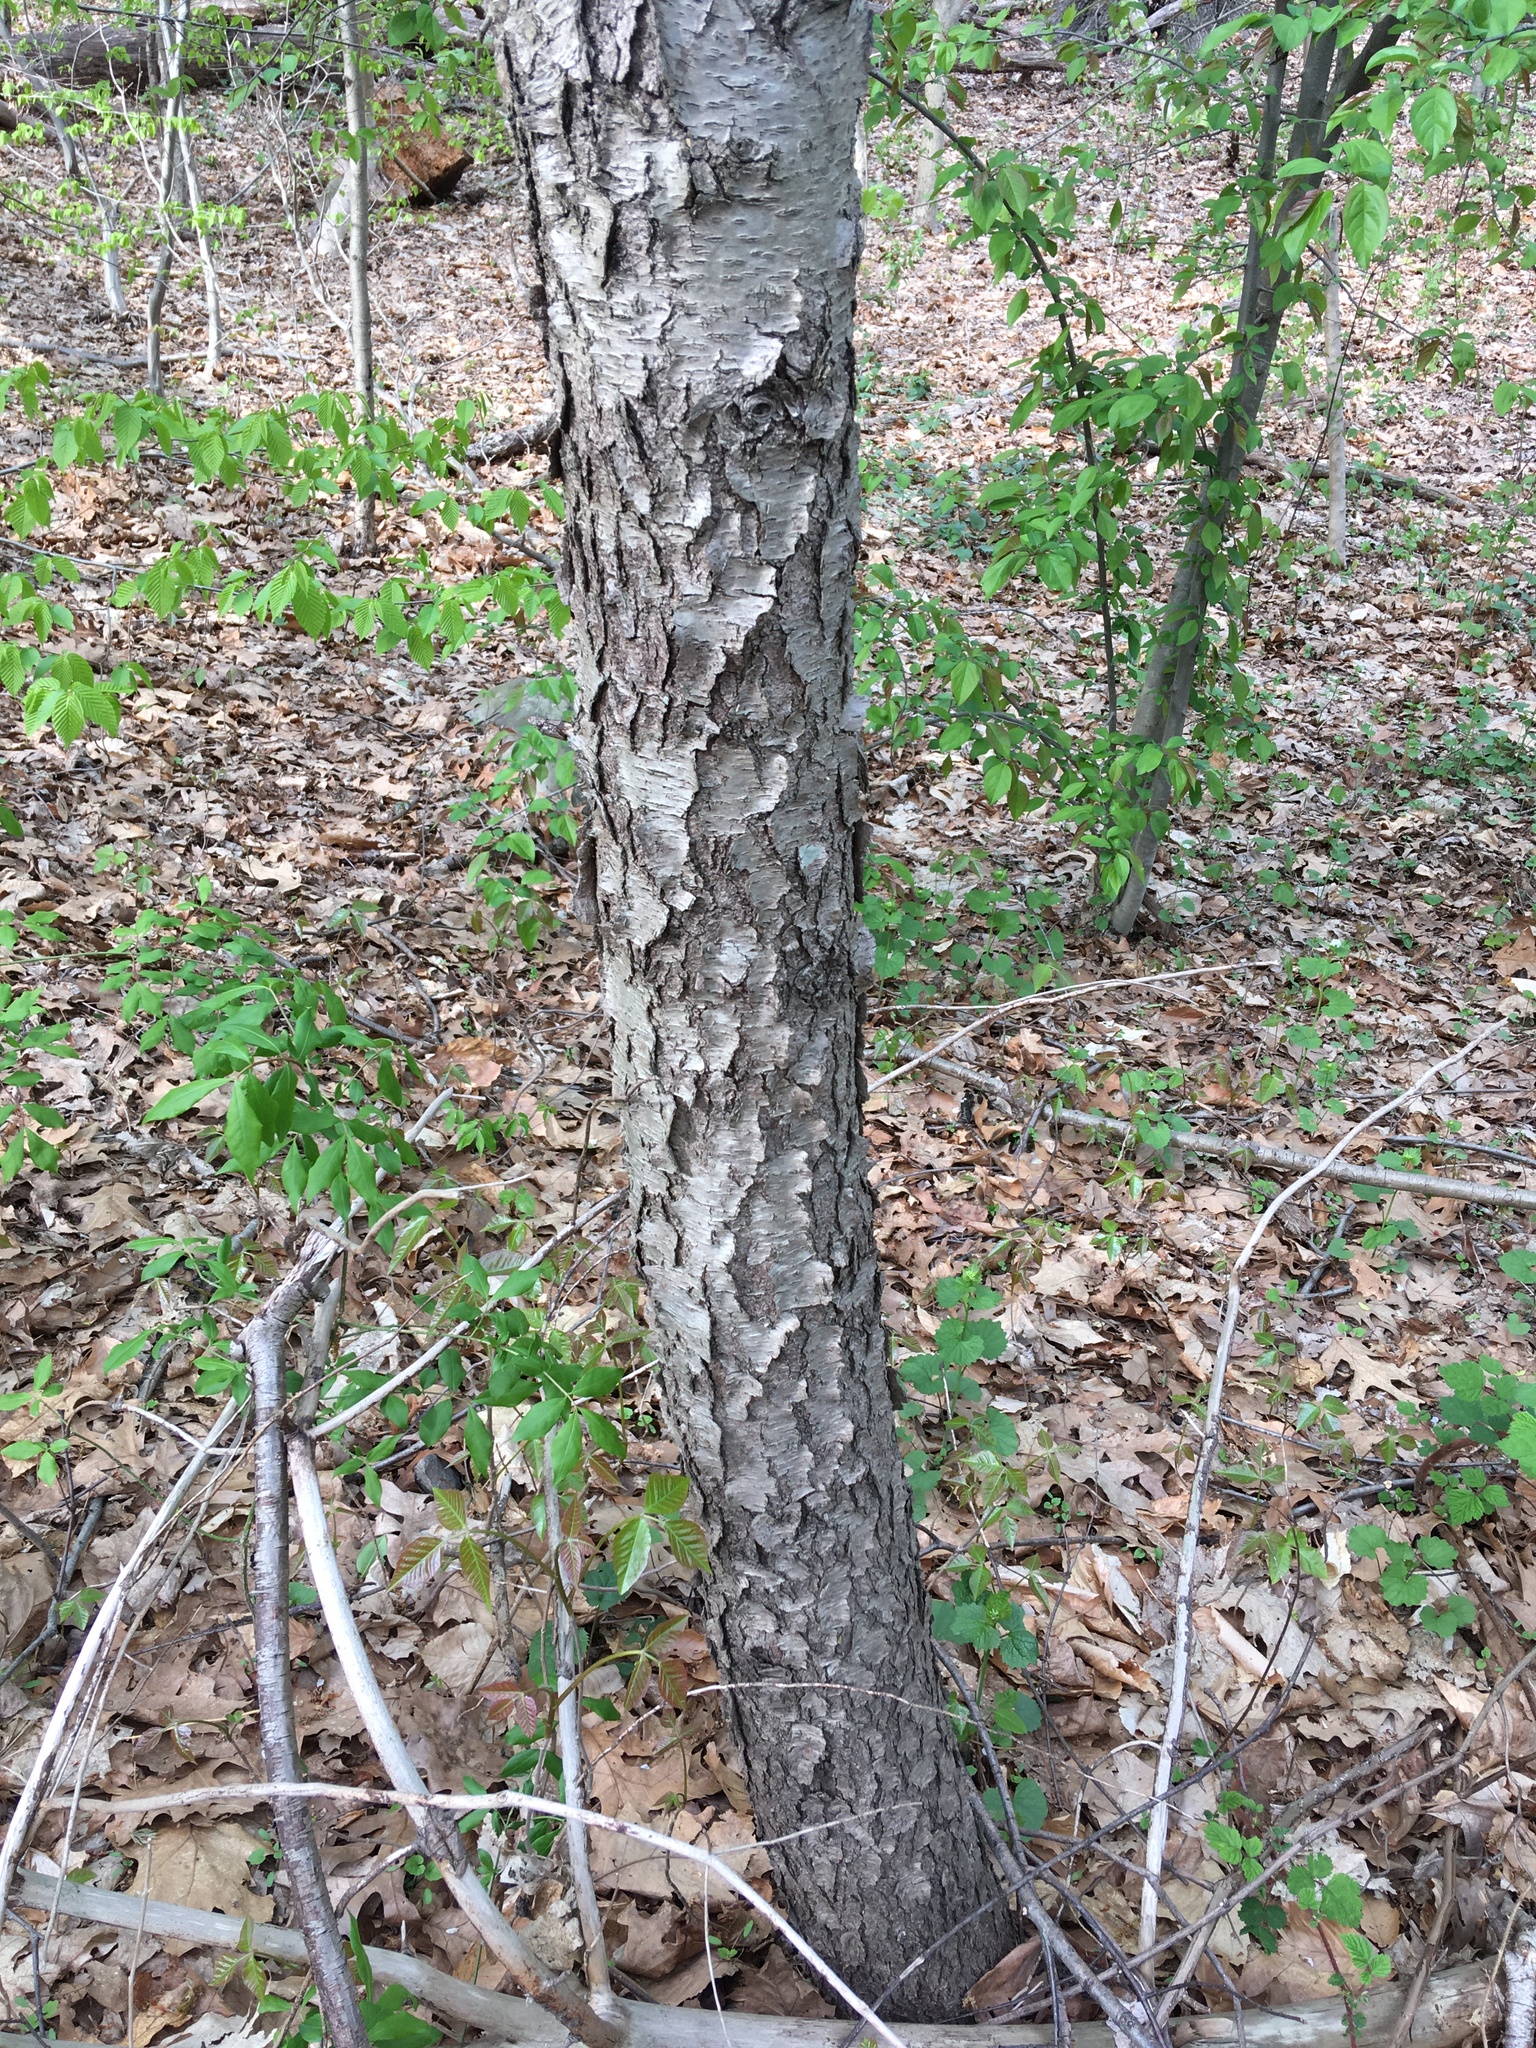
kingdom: Plantae
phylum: Tracheophyta
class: Magnoliopsida
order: Rosales
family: Rosaceae
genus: Prunus
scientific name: Prunus serotina
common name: Black cherry
